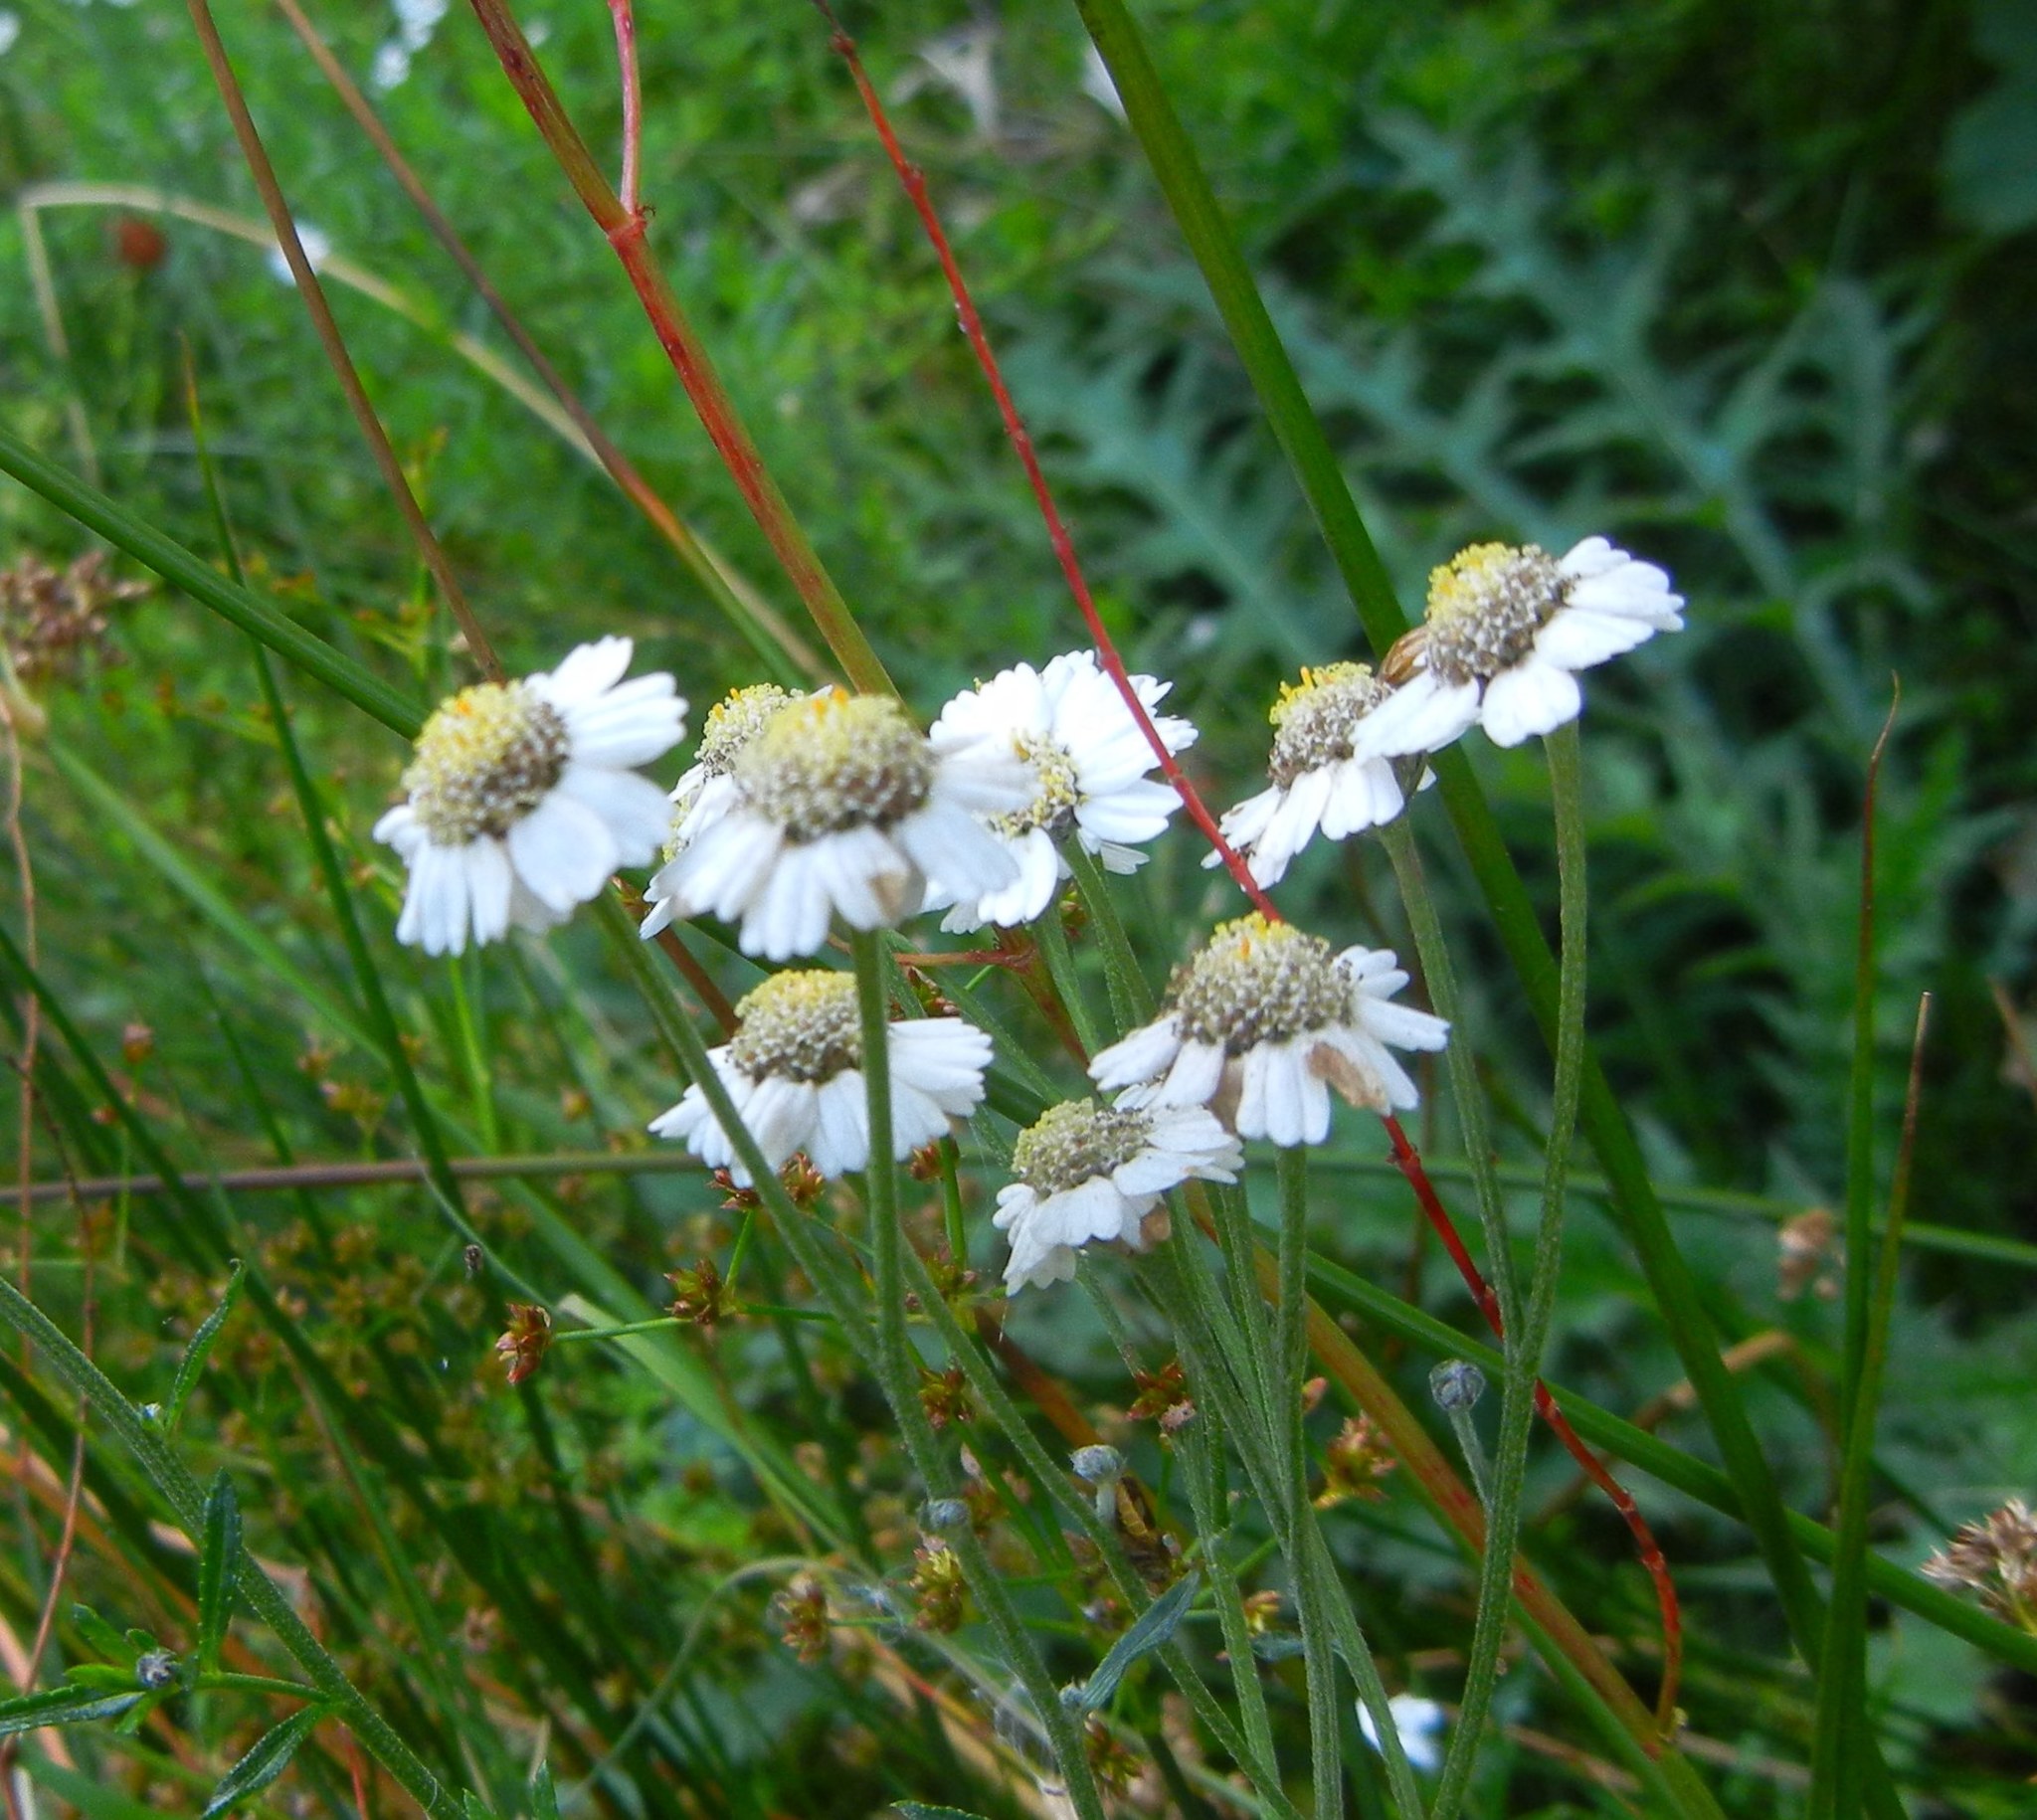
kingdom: Plantae
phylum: Tracheophyta
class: Magnoliopsida
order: Asterales
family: Asteraceae
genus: Achillea
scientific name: Achillea ptarmica
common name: Sneezeweed
